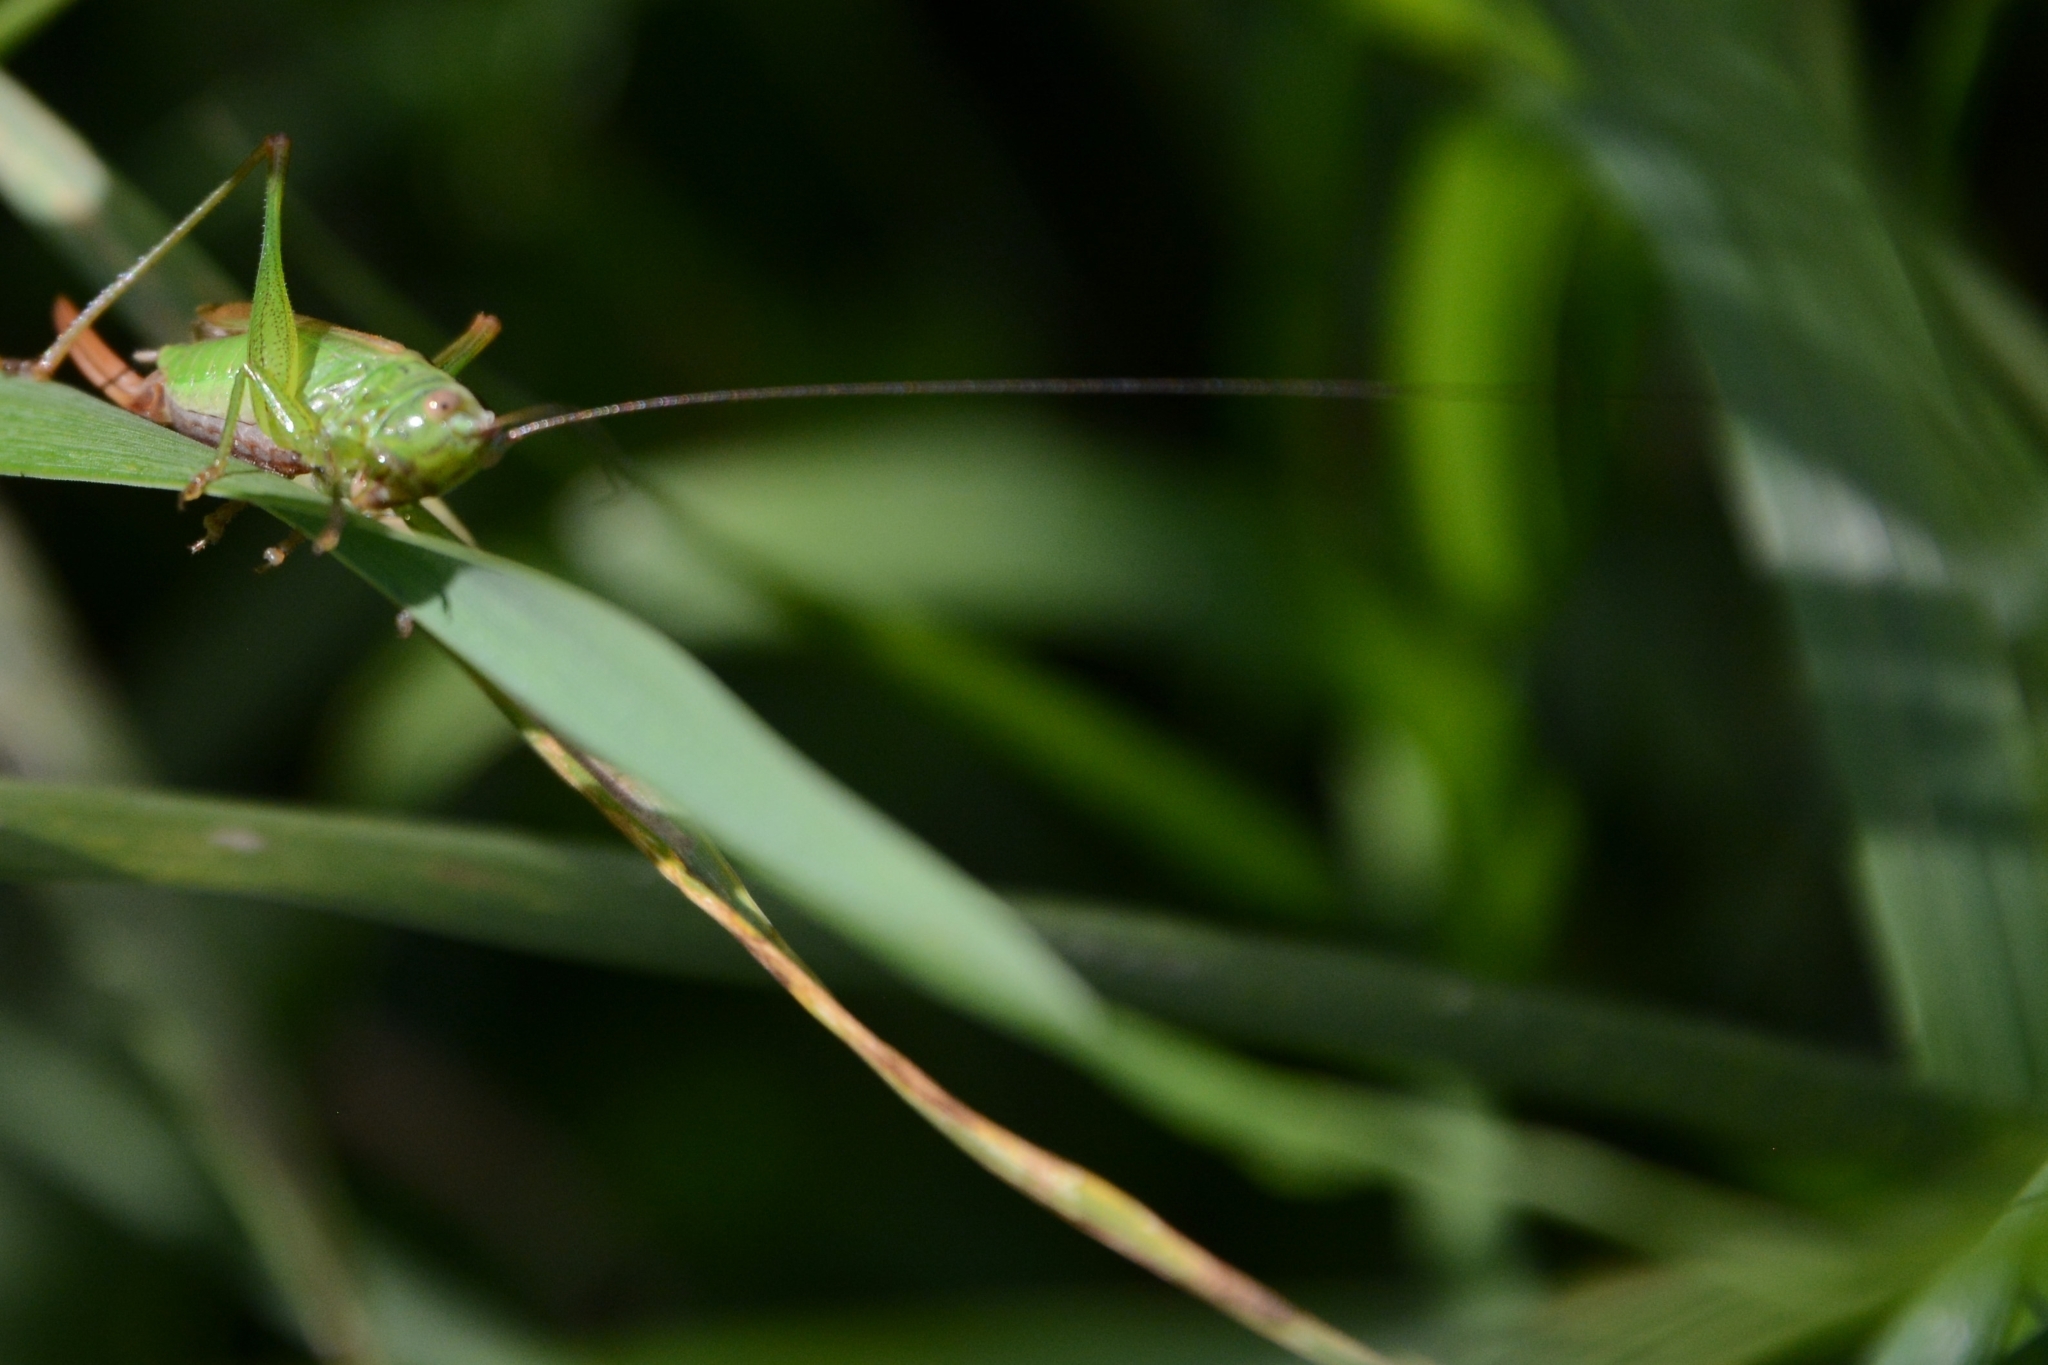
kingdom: Animalia
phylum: Arthropoda
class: Insecta
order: Orthoptera
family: Tettigoniidae
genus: Conocephalus
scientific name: Conocephalus fuscus
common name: Long-winged conehead
